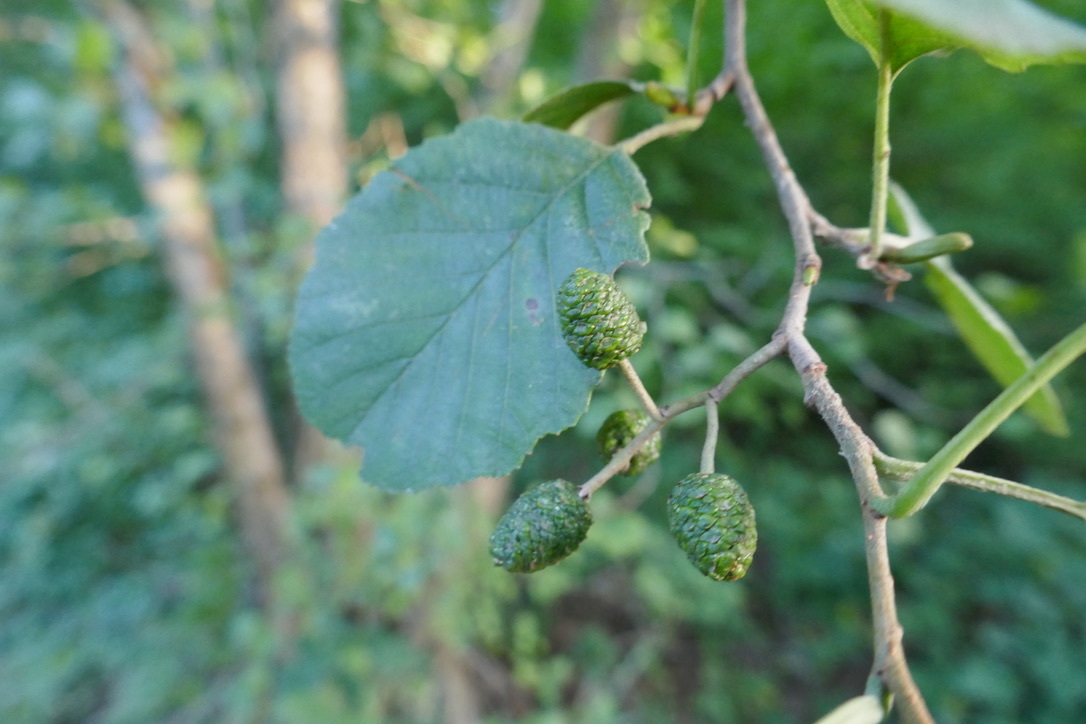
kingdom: Plantae
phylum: Tracheophyta
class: Magnoliopsida
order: Fagales
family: Betulaceae
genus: Alnus
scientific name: Alnus glutinosa
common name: Black alder
